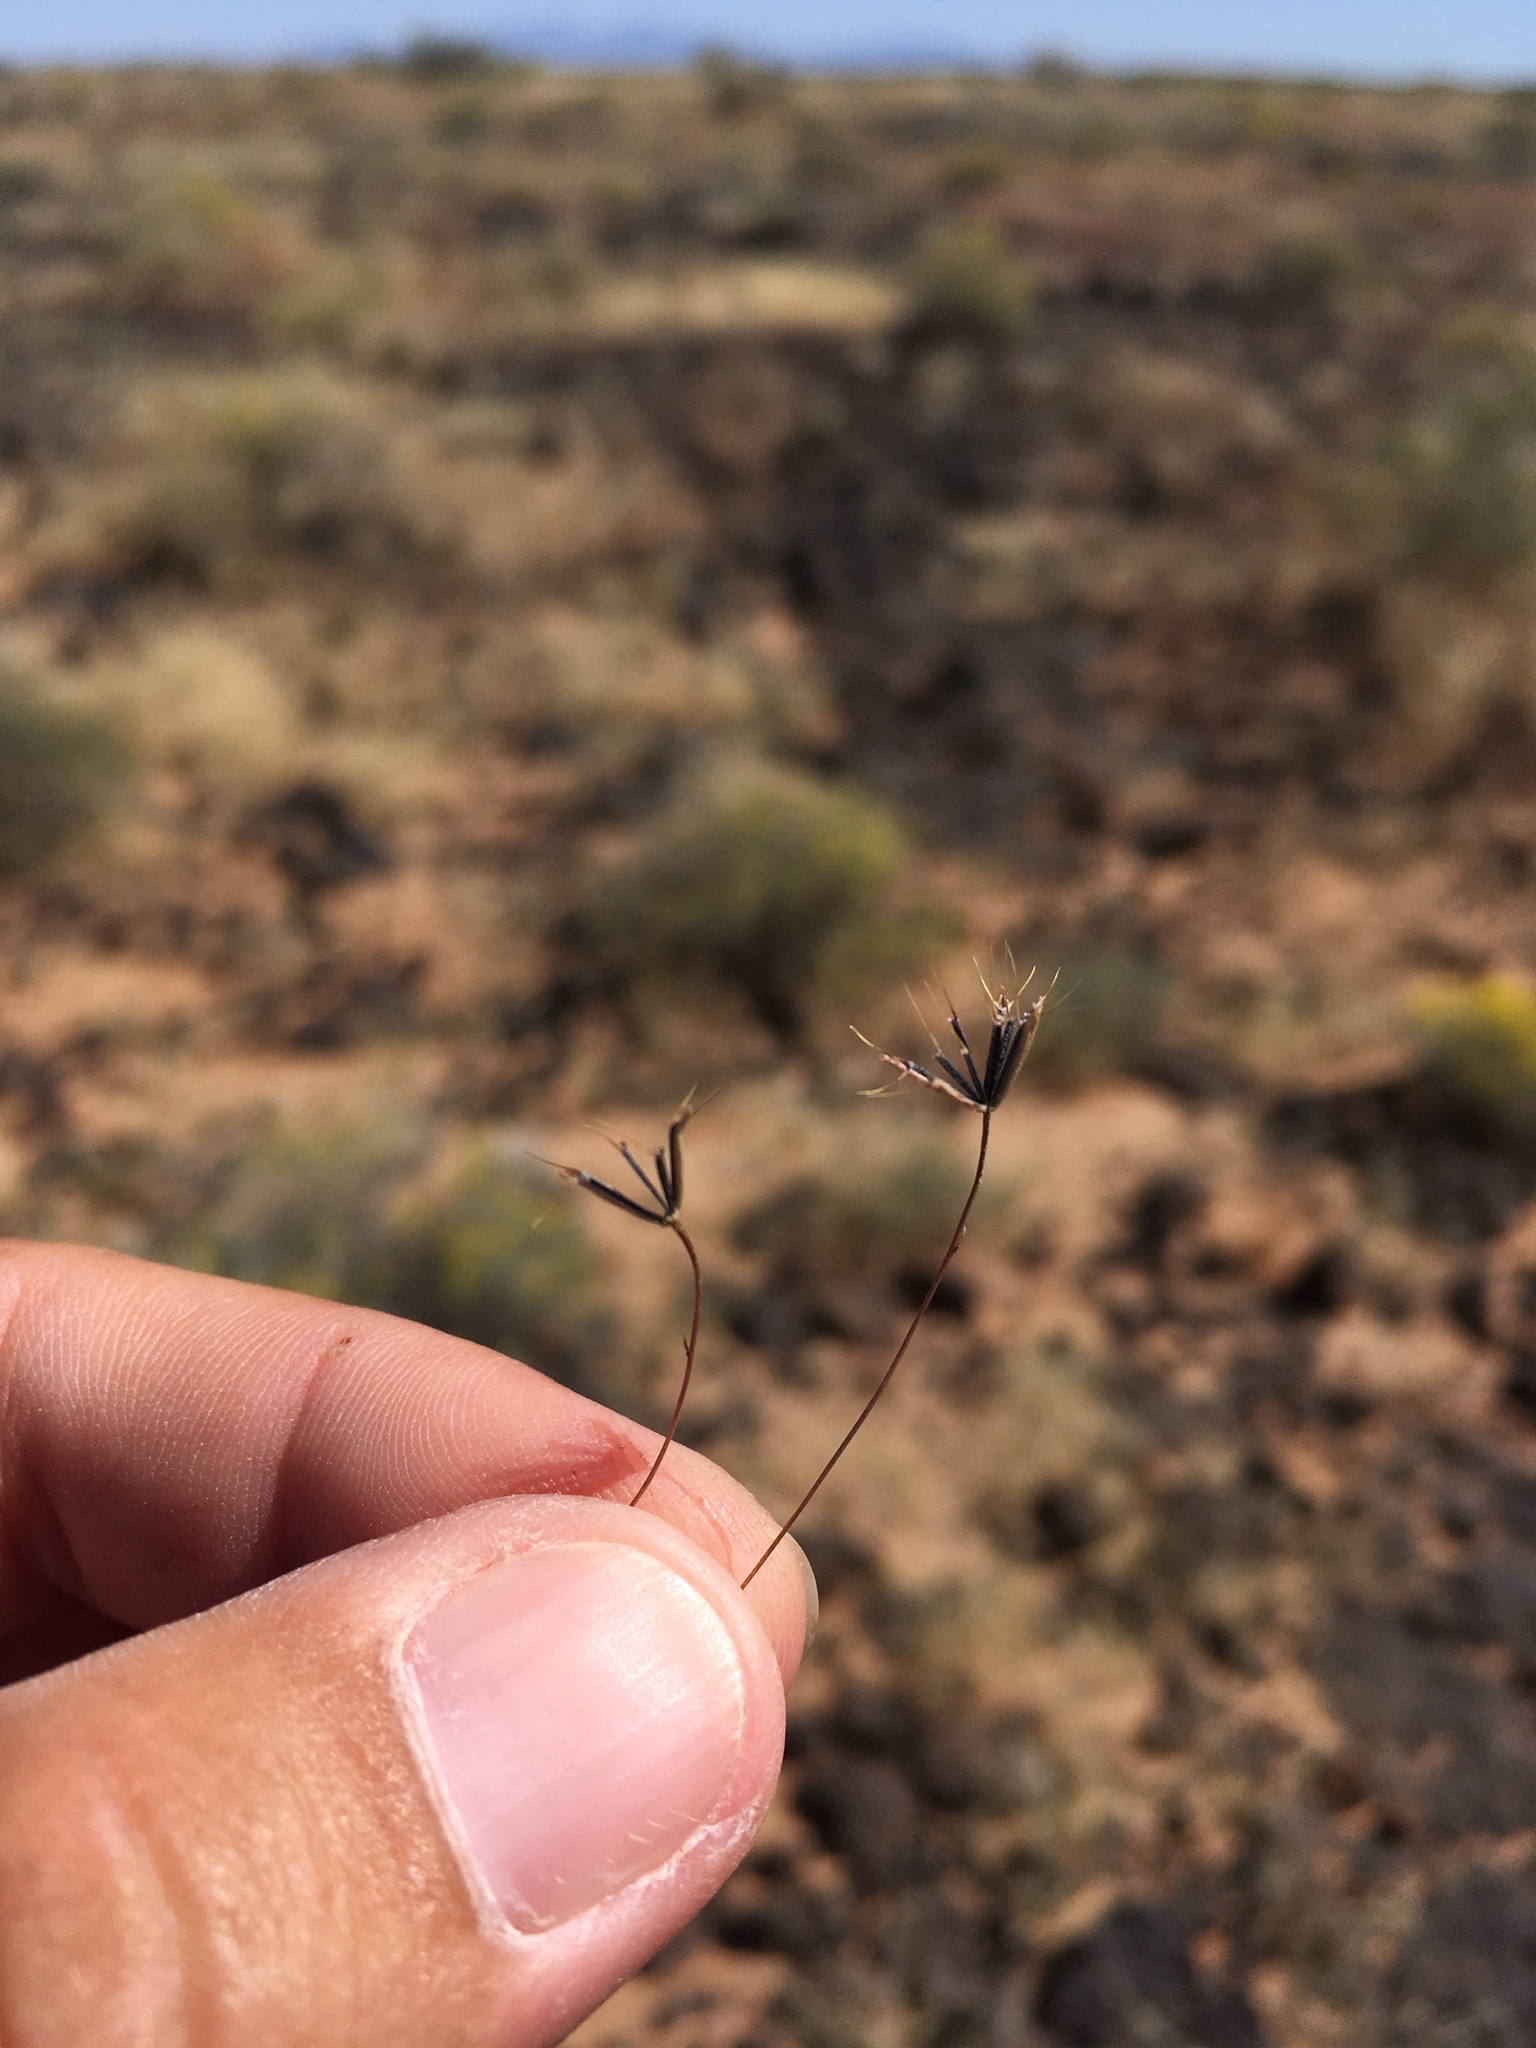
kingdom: Plantae
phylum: Tracheophyta
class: Magnoliopsida
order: Asterales
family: Asteraceae
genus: Pectis
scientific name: Pectis filipes
